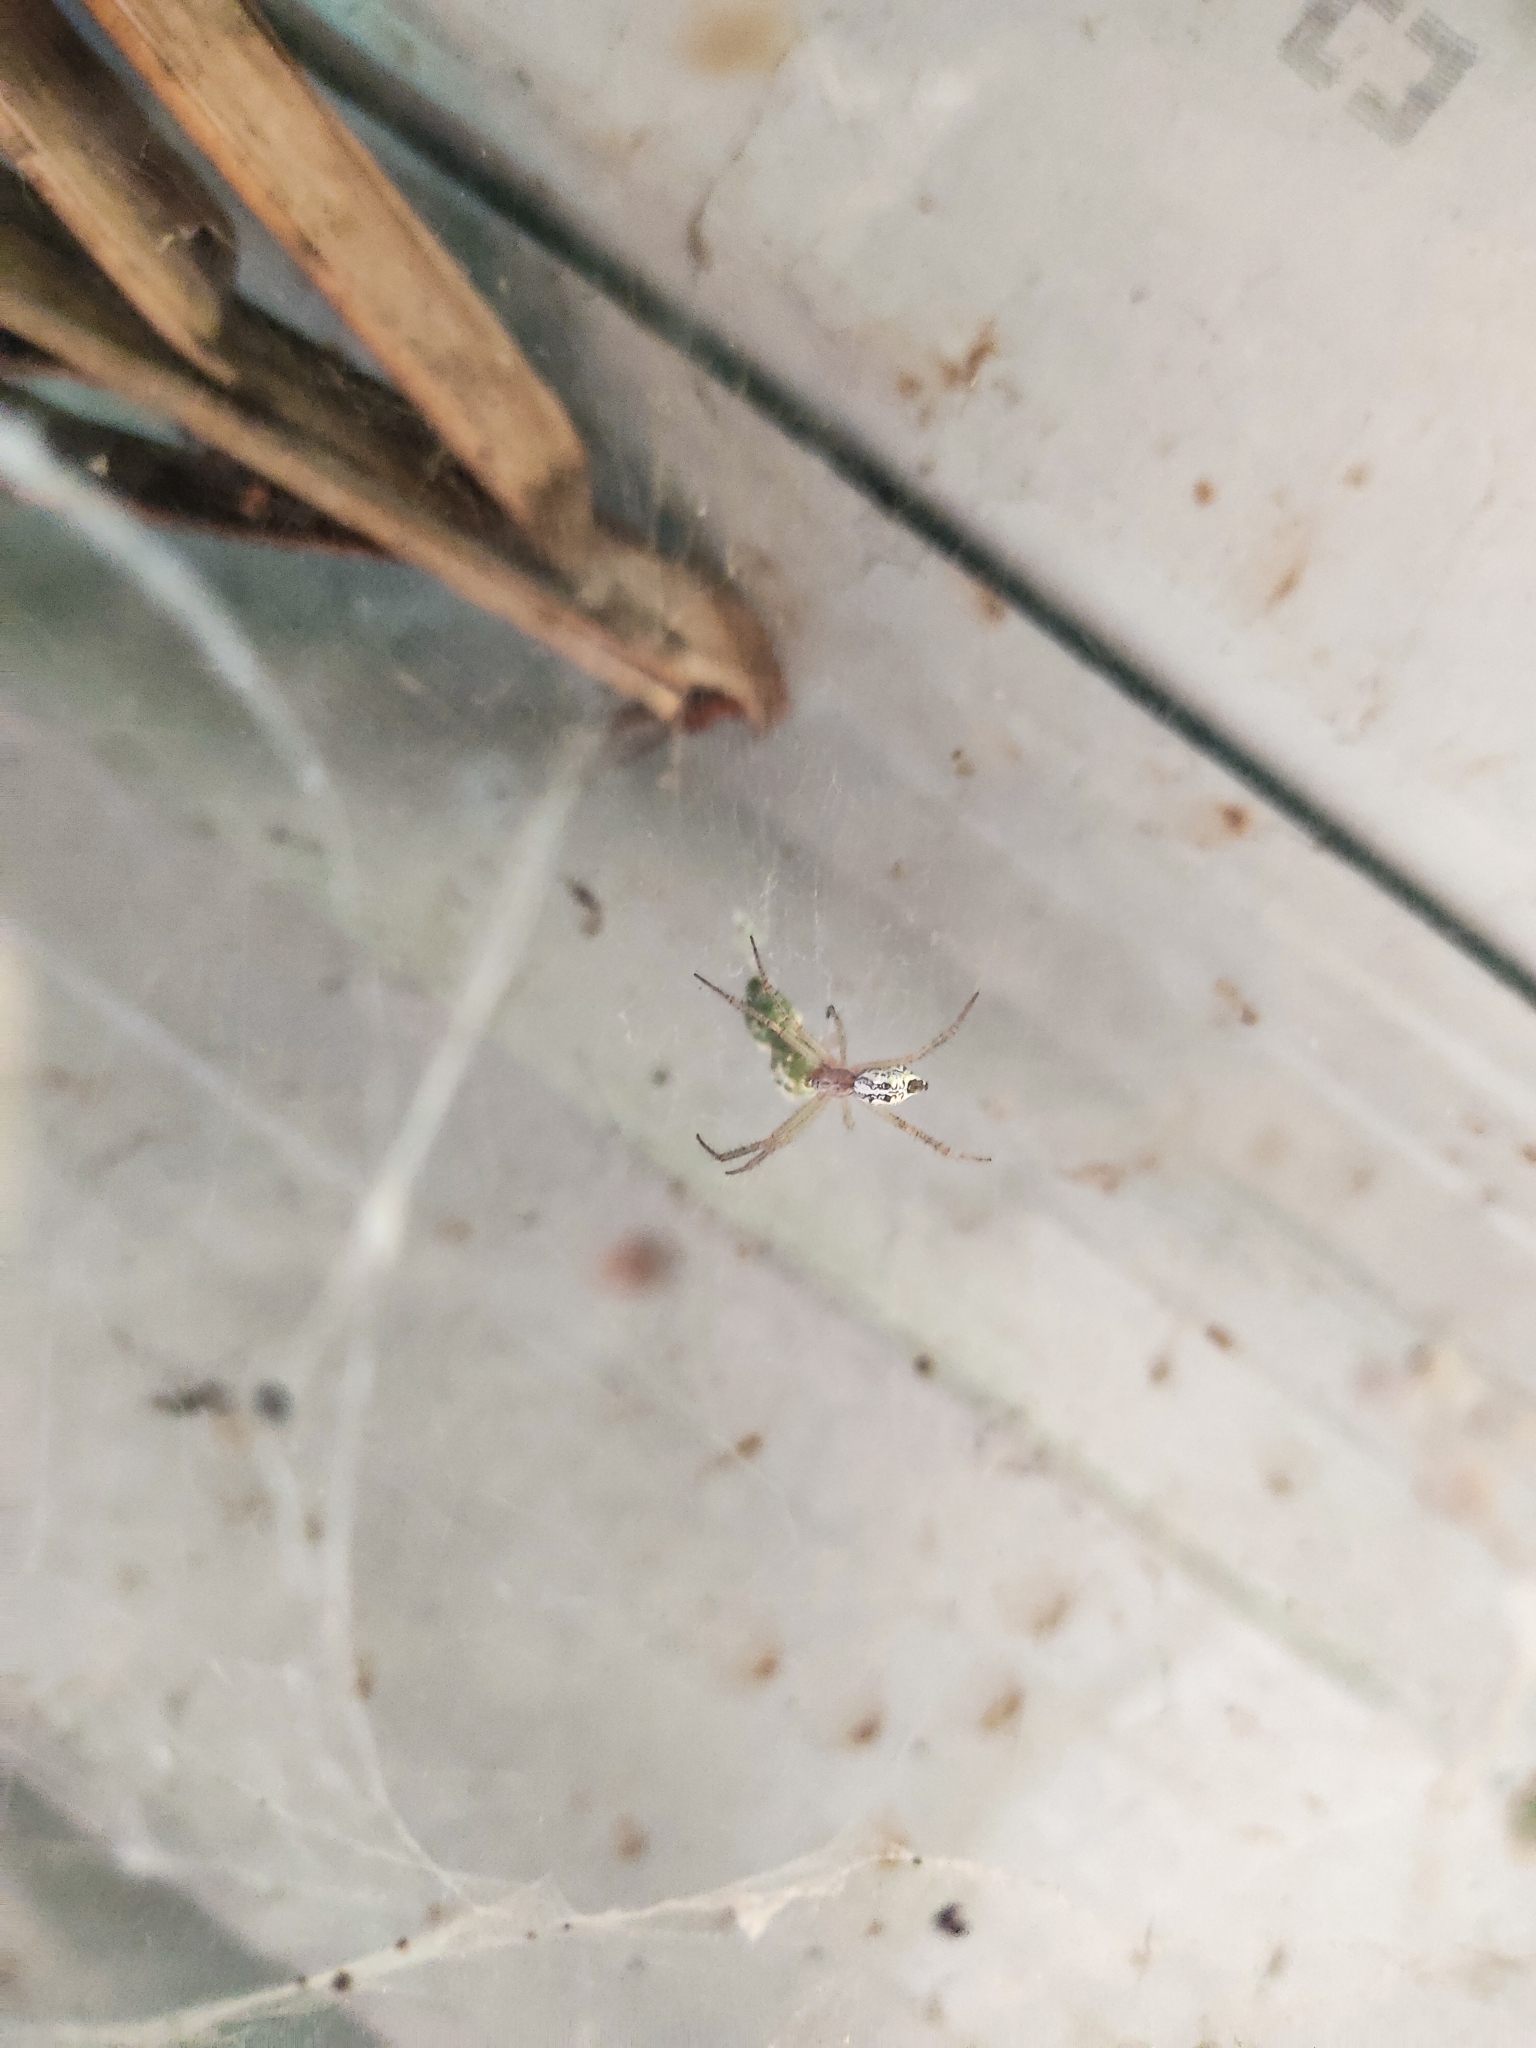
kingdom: Animalia
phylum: Arthropoda
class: Arachnida
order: Araneae
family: Araneidae
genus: Cyrtophora
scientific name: Cyrtophora cicatrosa
